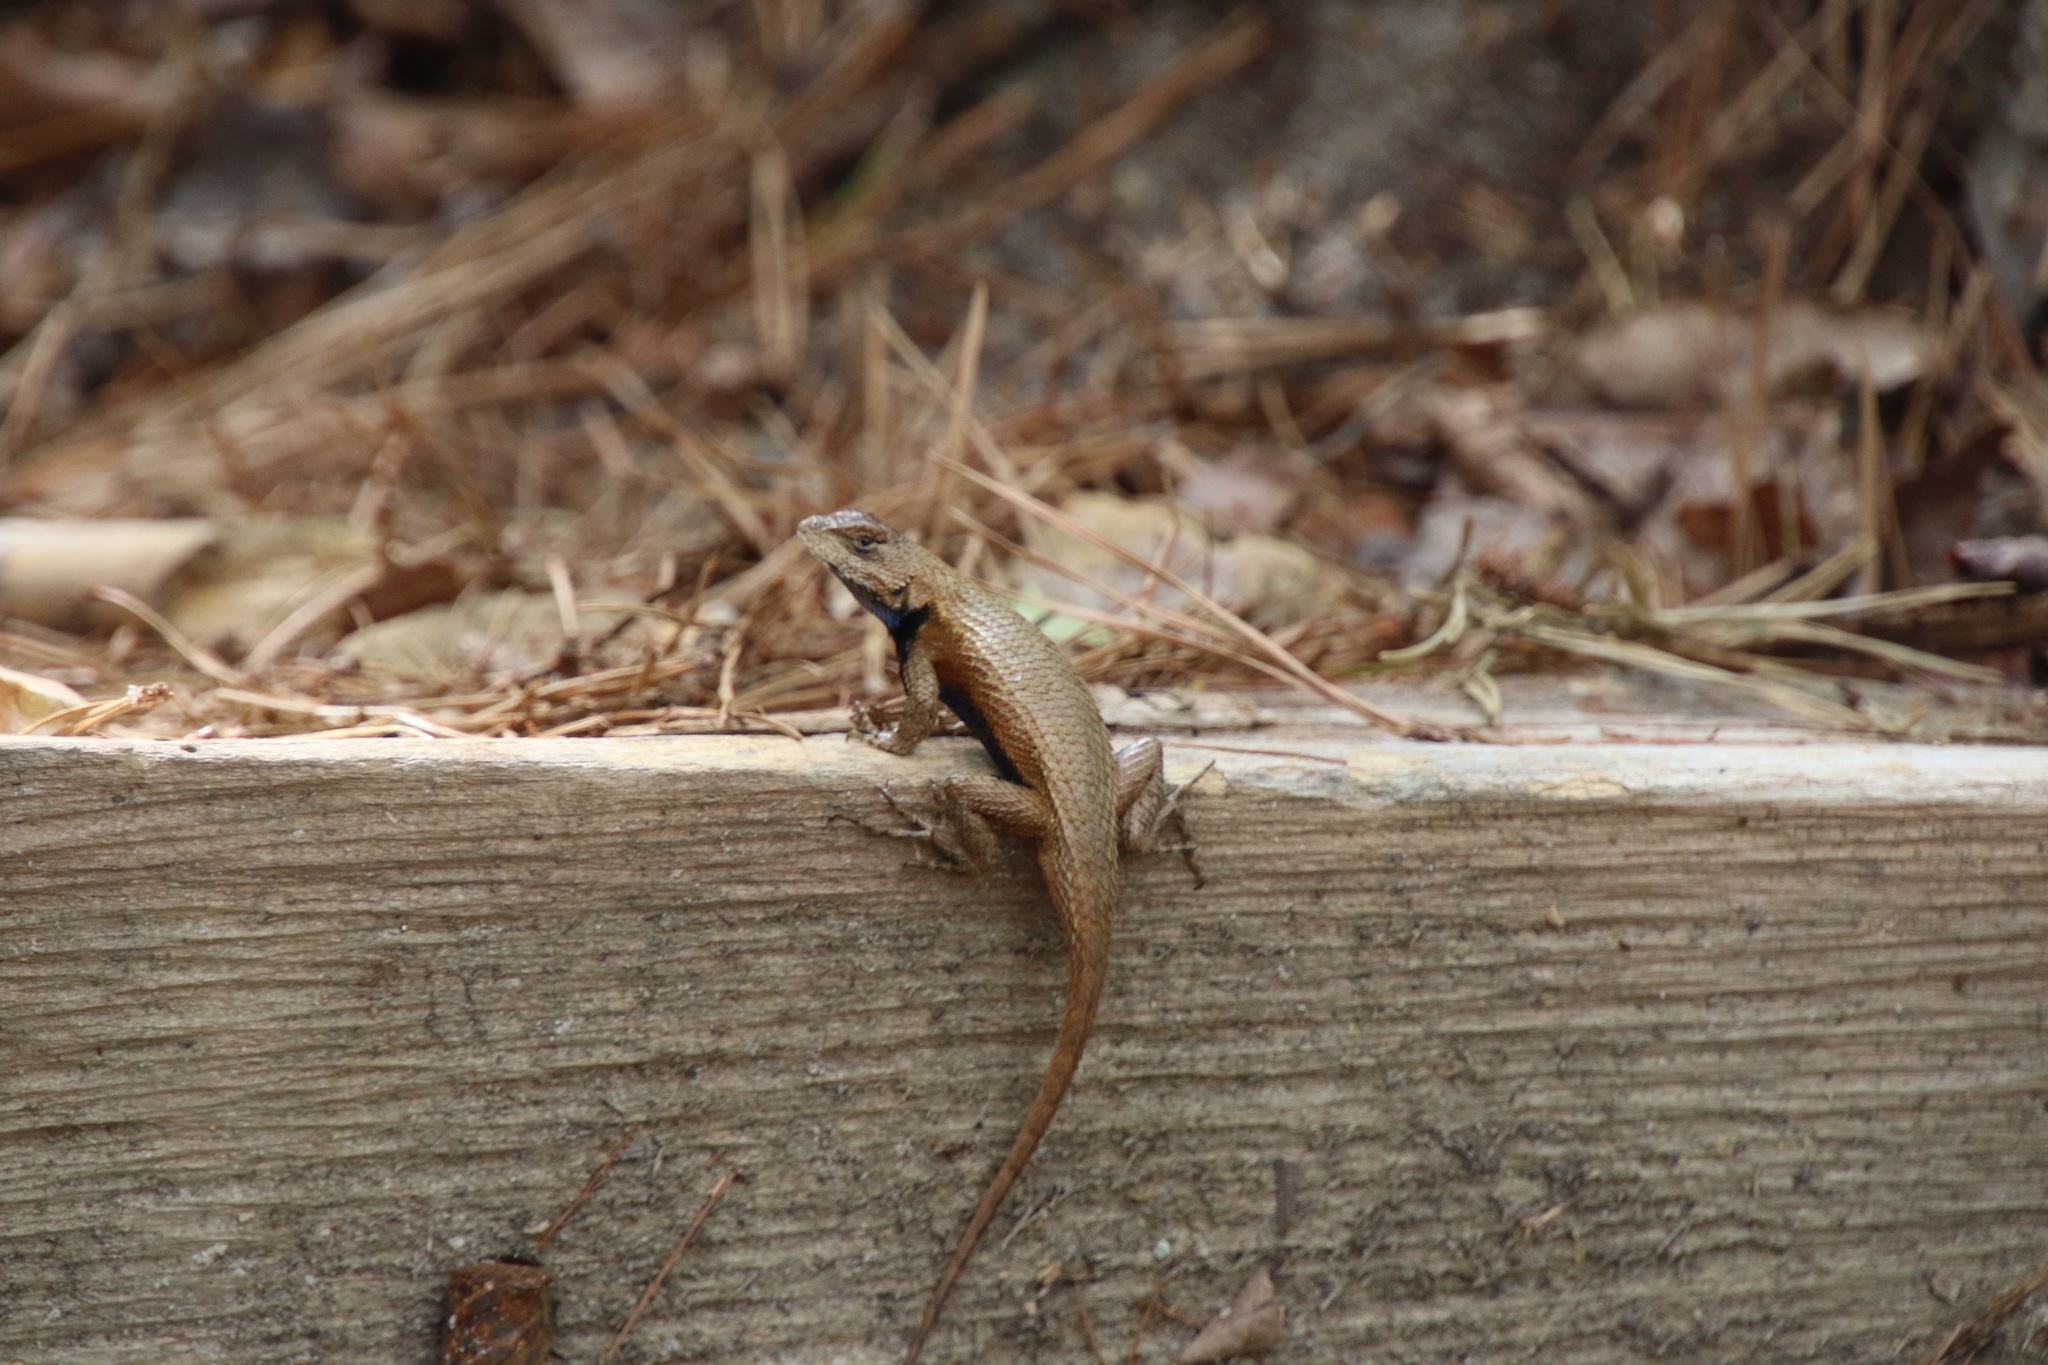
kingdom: Animalia
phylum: Chordata
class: Squamata
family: Phrynosomatidae
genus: Sceloporus
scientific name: Sceloporus undulatus
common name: Eastern fence lizard
